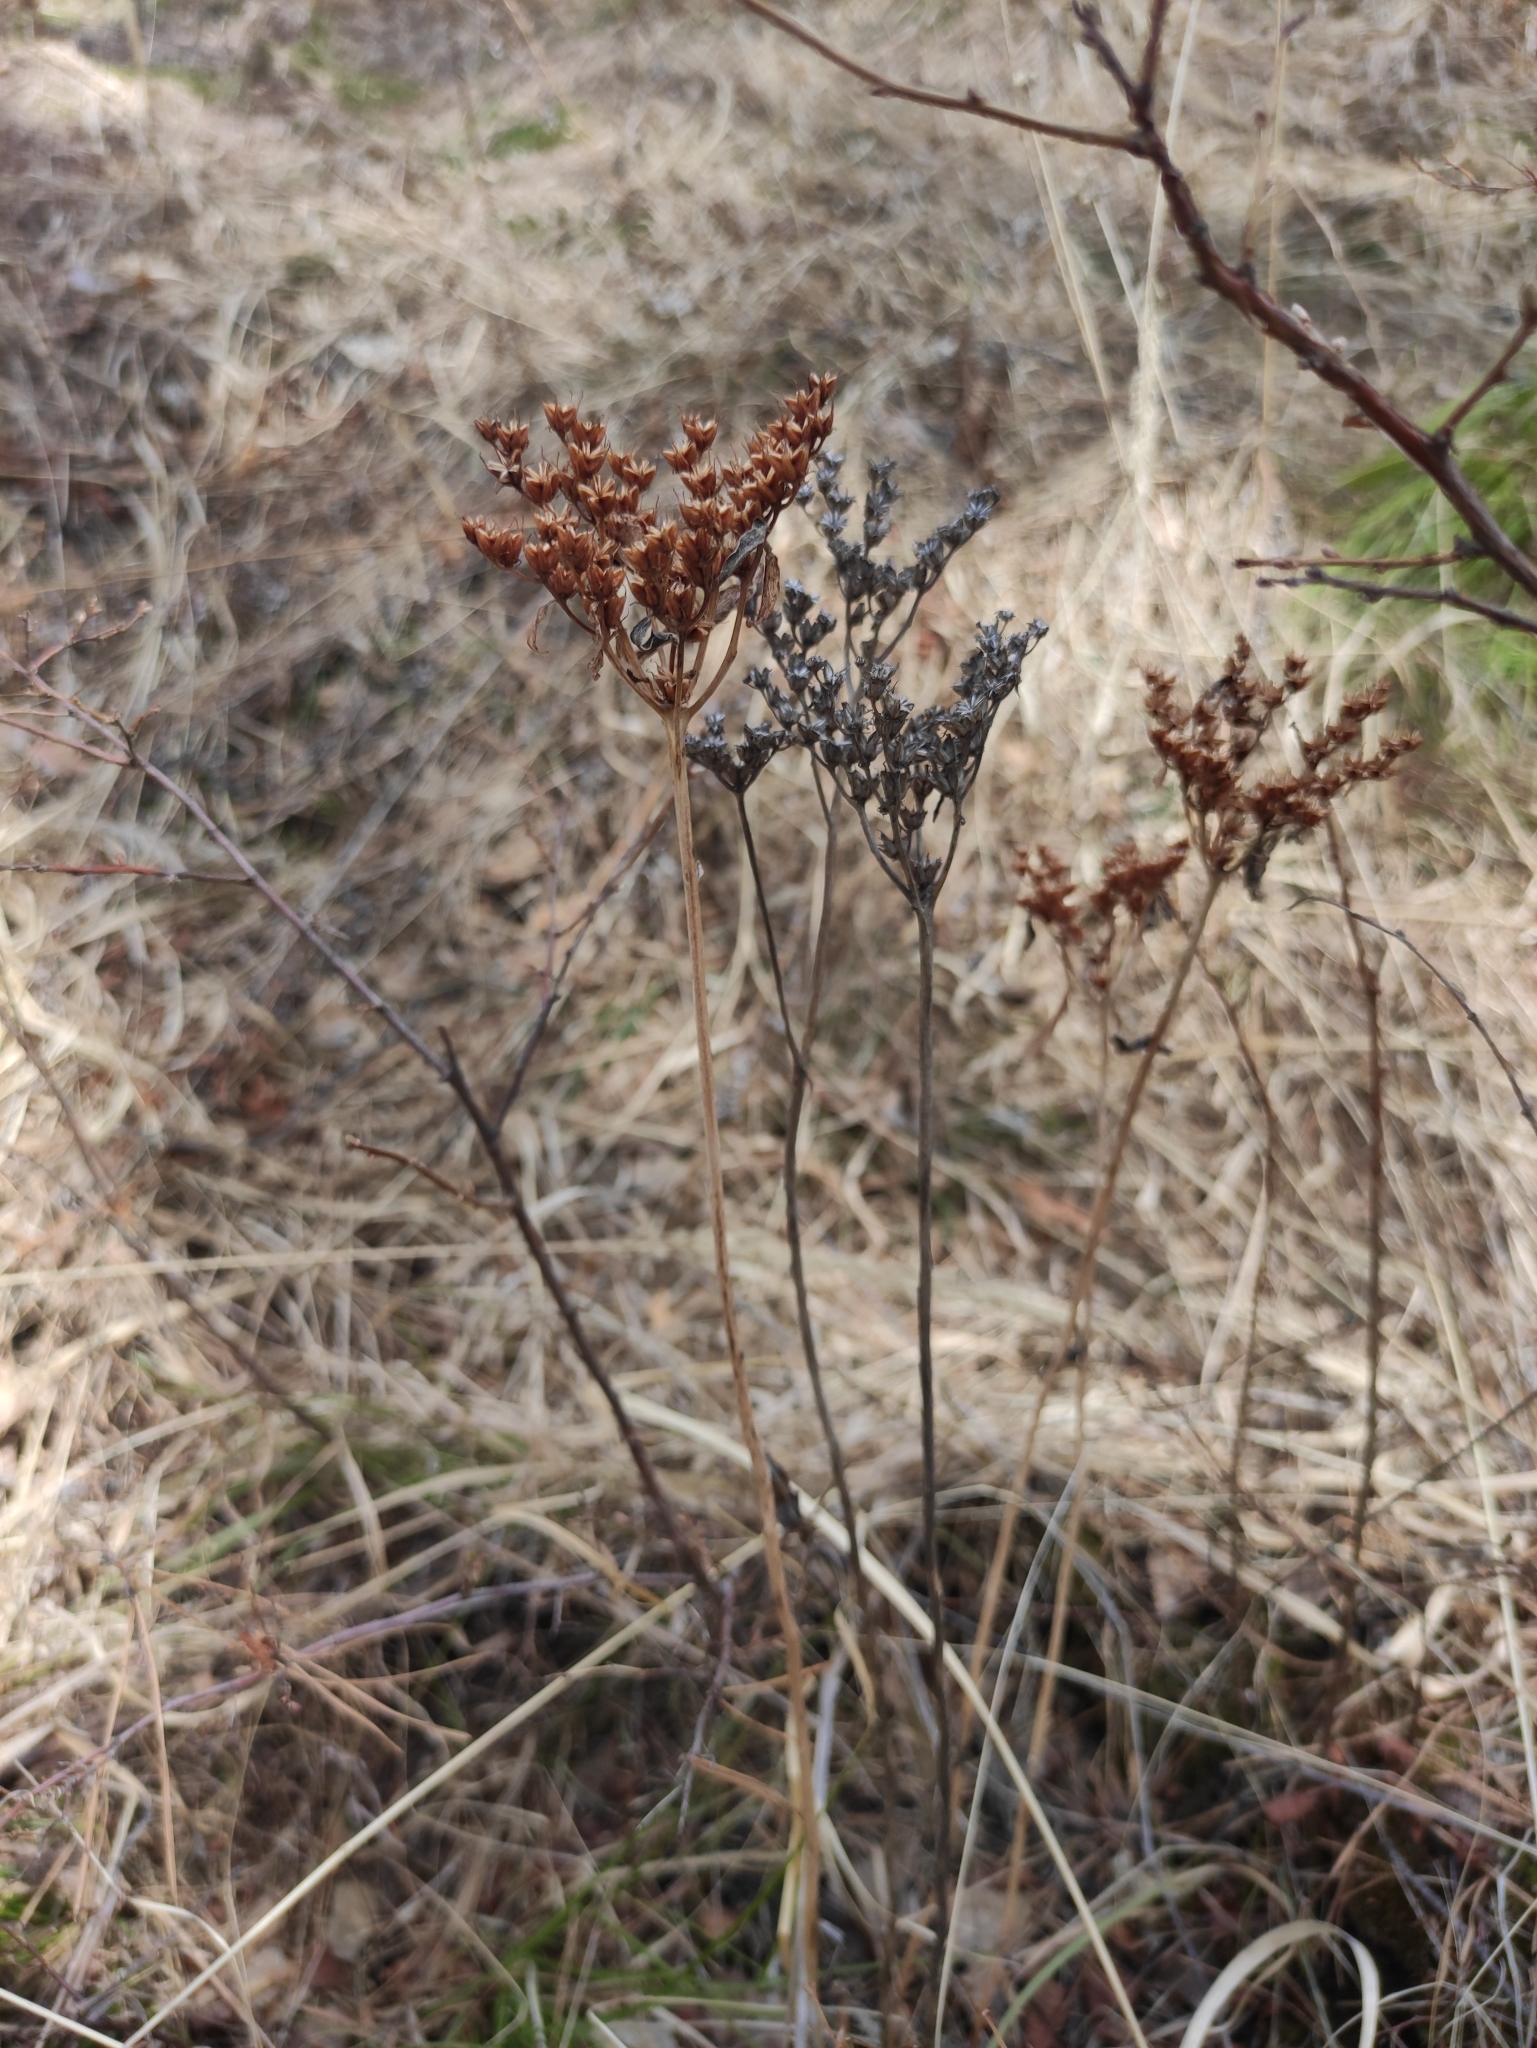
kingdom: Plantae
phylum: Tracheophyta
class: Magnoliopsida
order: Saxifragales
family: Crassulaceae
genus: Phedimus
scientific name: Phedimus aizoon
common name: Orpin aizoon
